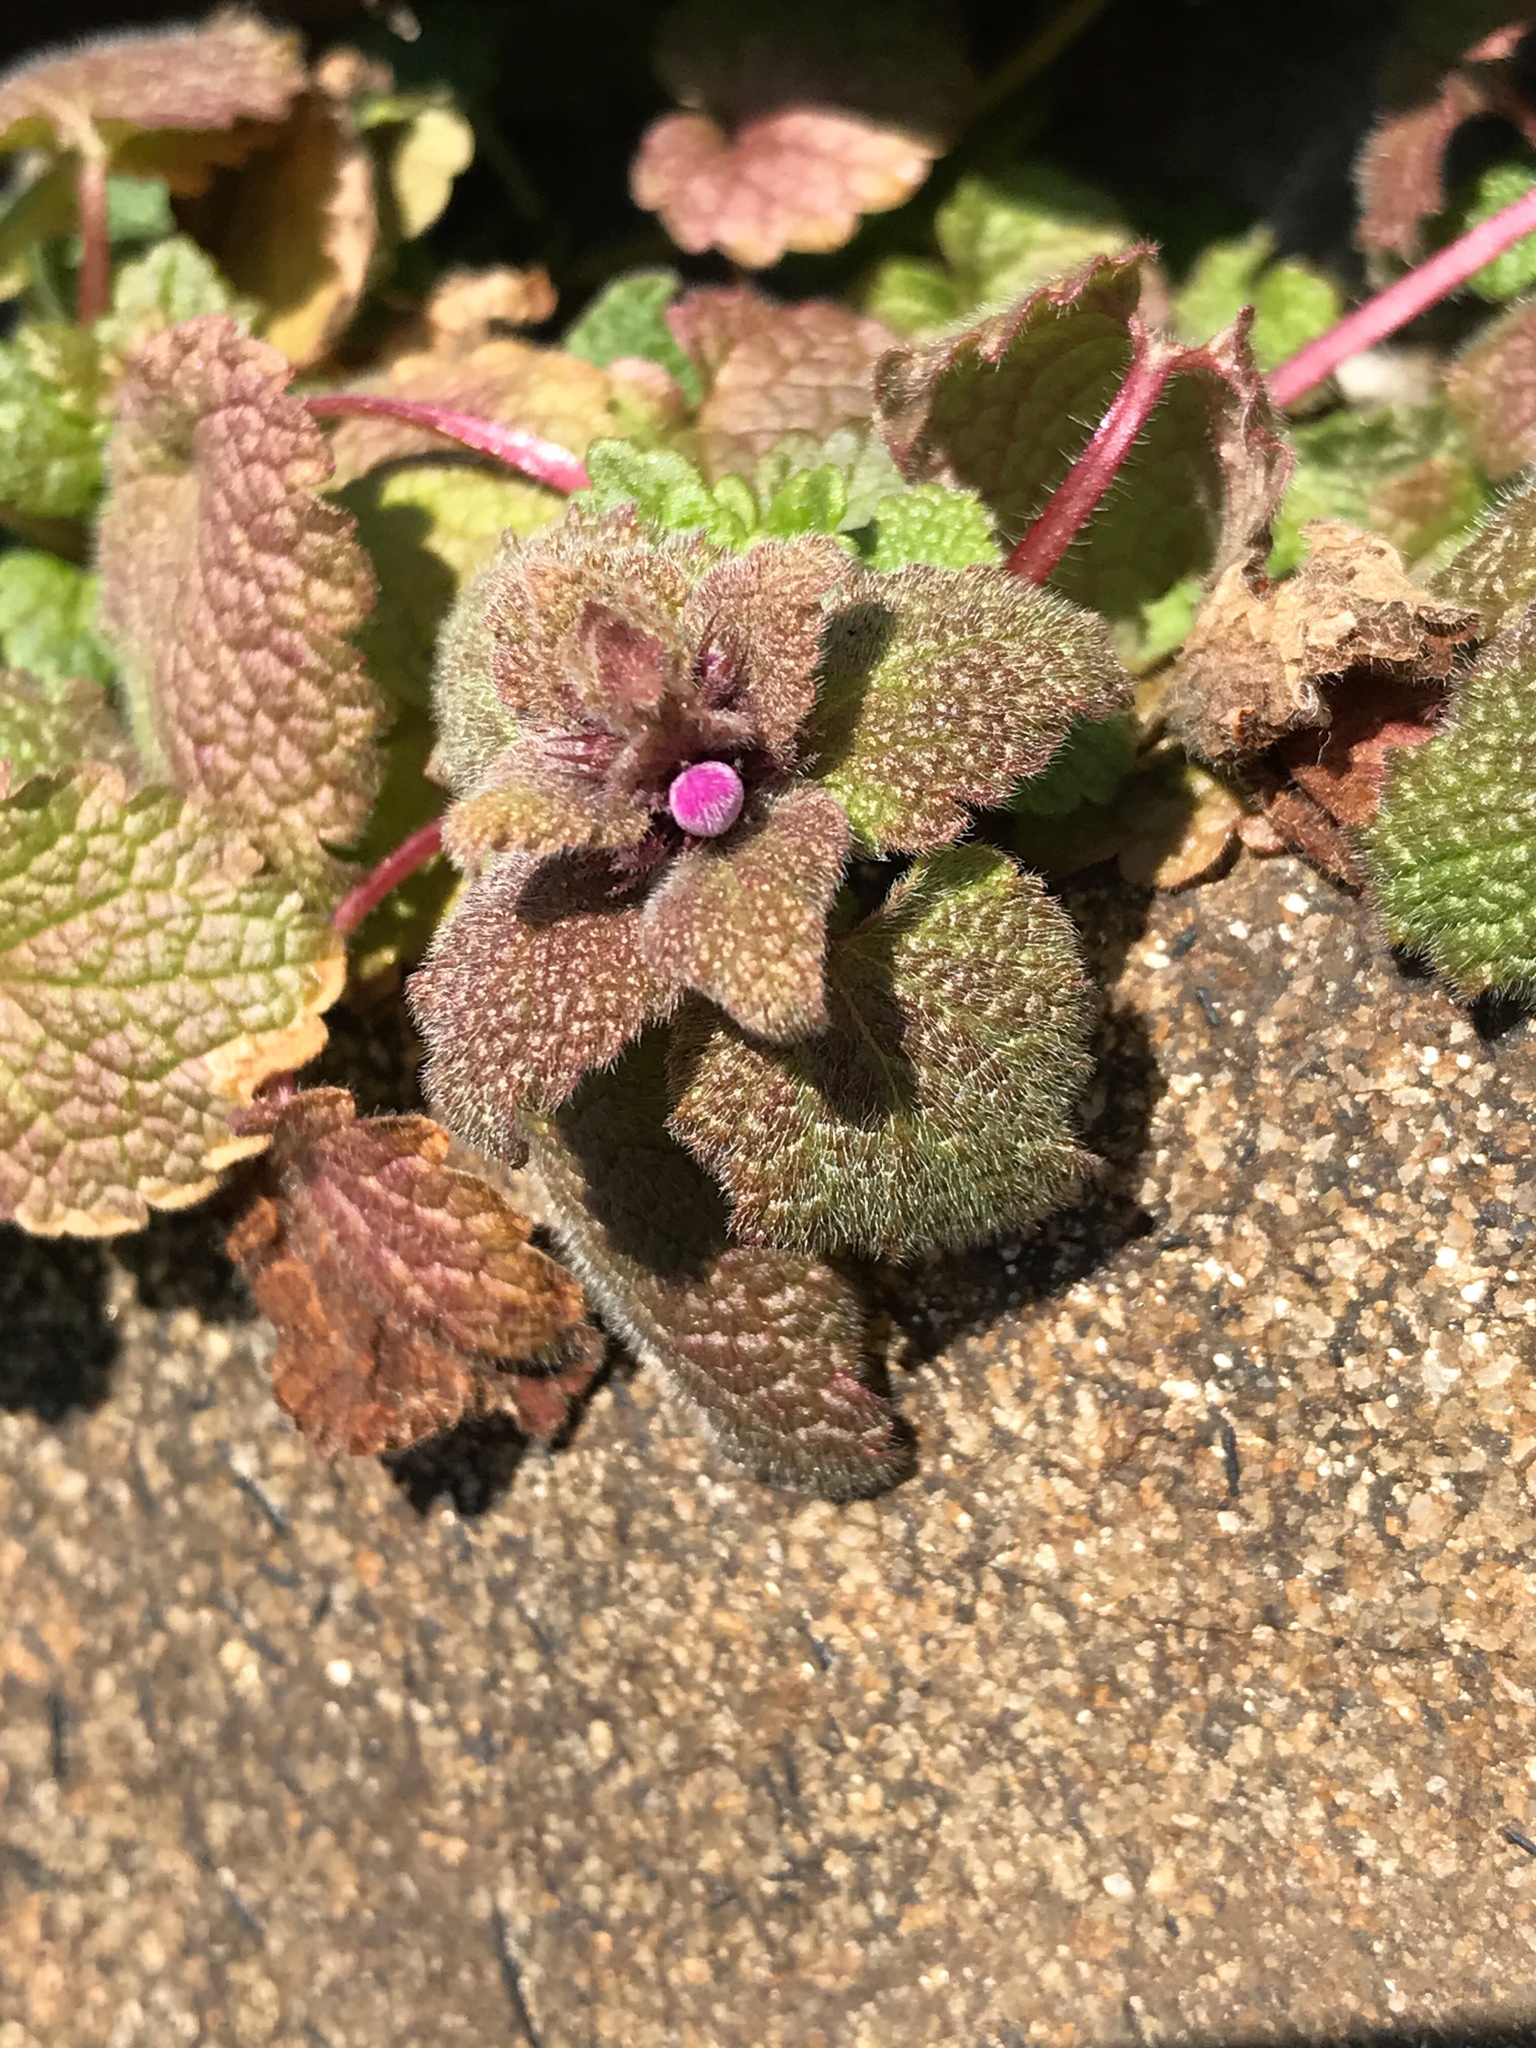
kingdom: Plantae
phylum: Tracheophyta
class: Magnoliopsida
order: Lamiales
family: Lamiaceae
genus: Lamium
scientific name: Lamium purpureum
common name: Red dead-nettle
